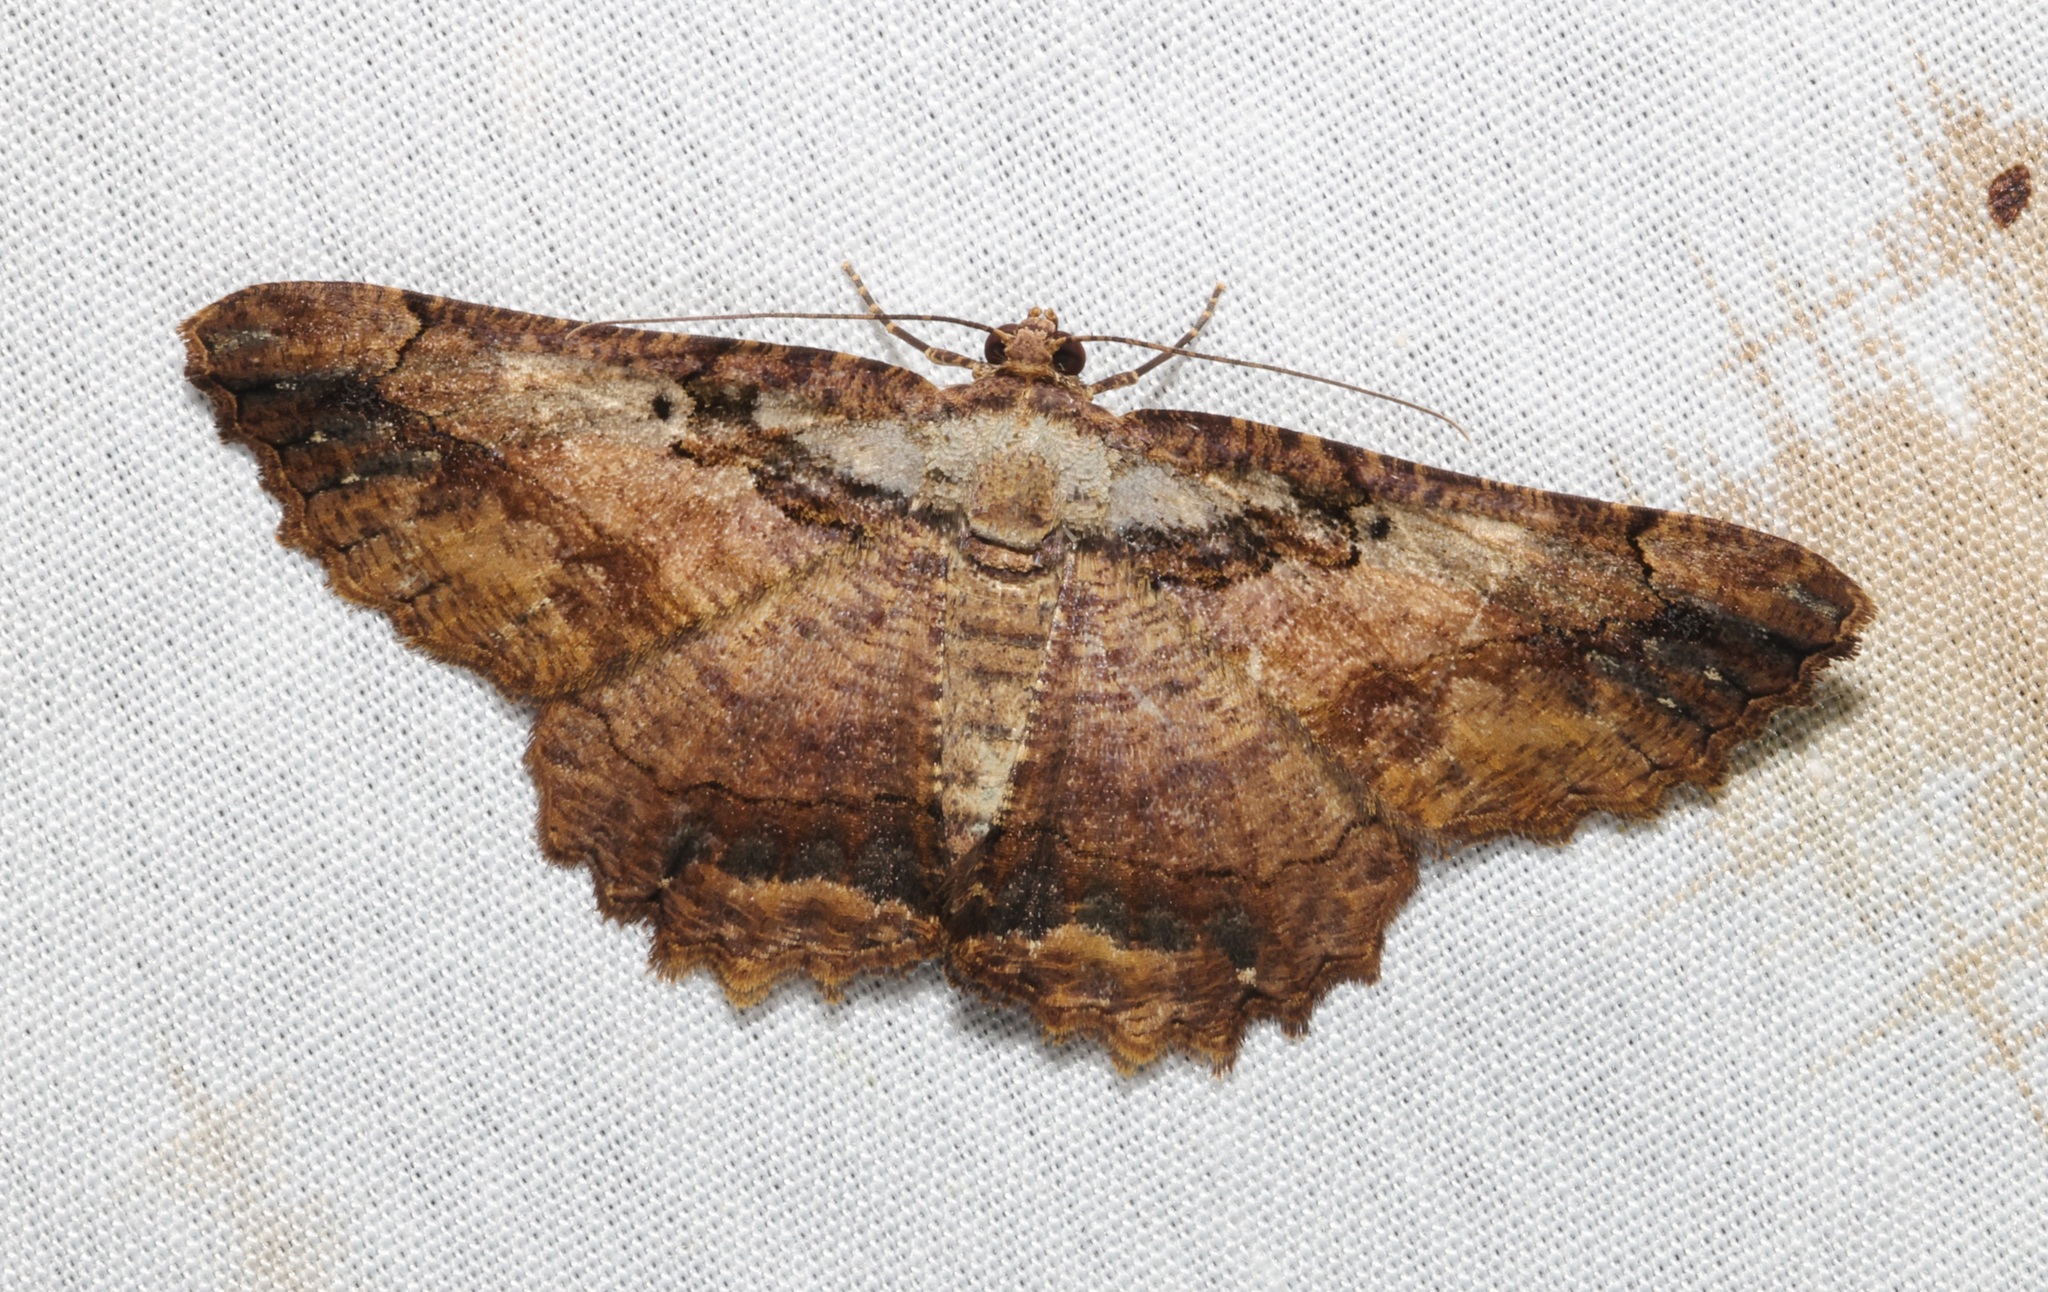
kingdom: Animalia
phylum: Arthropoda
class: Insecta
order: Lepidoptera
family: Geometridae
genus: Dasyboarmia
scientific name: Dasyboarmia subpilosa
